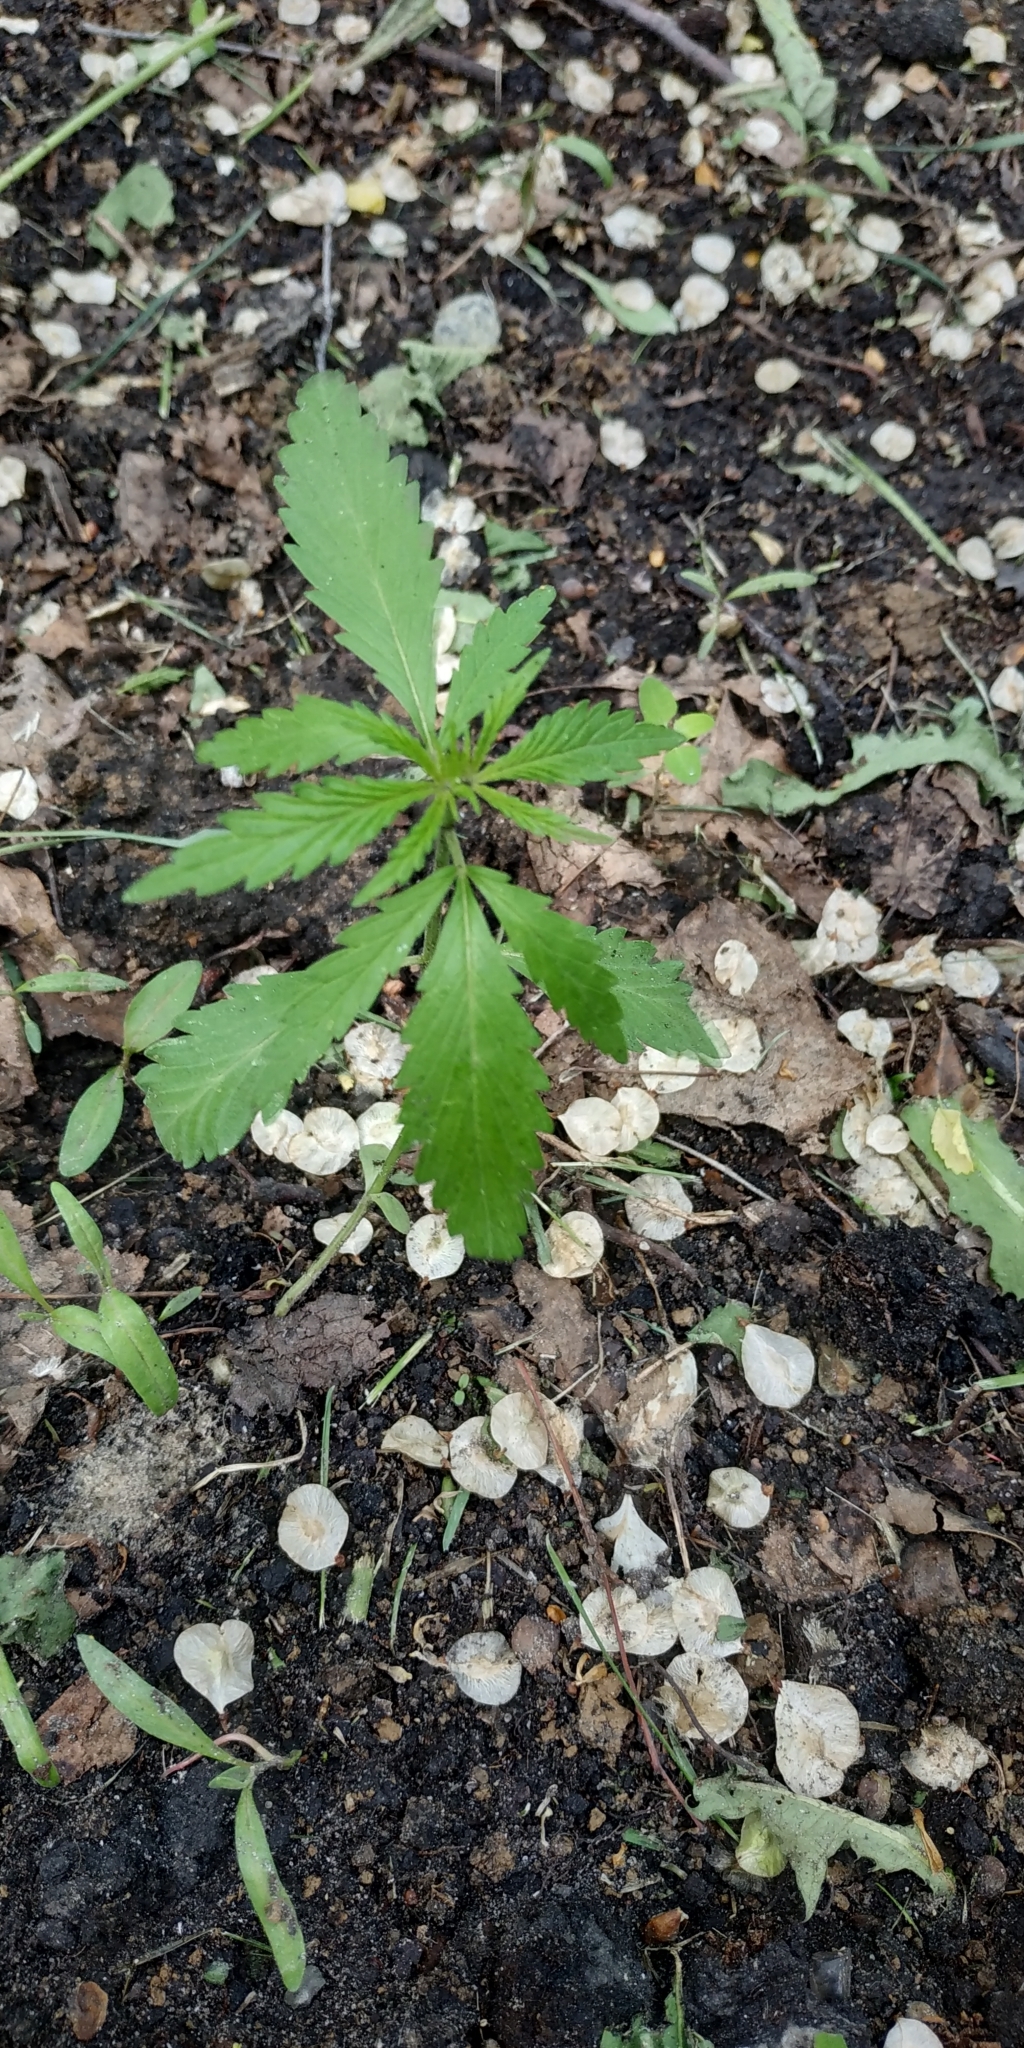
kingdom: Plantae
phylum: Tracheophyta
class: Magnoliopsida
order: Rosales
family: Cannabaceae
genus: Cannabis
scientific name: Cannabis sativa
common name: Hemp
